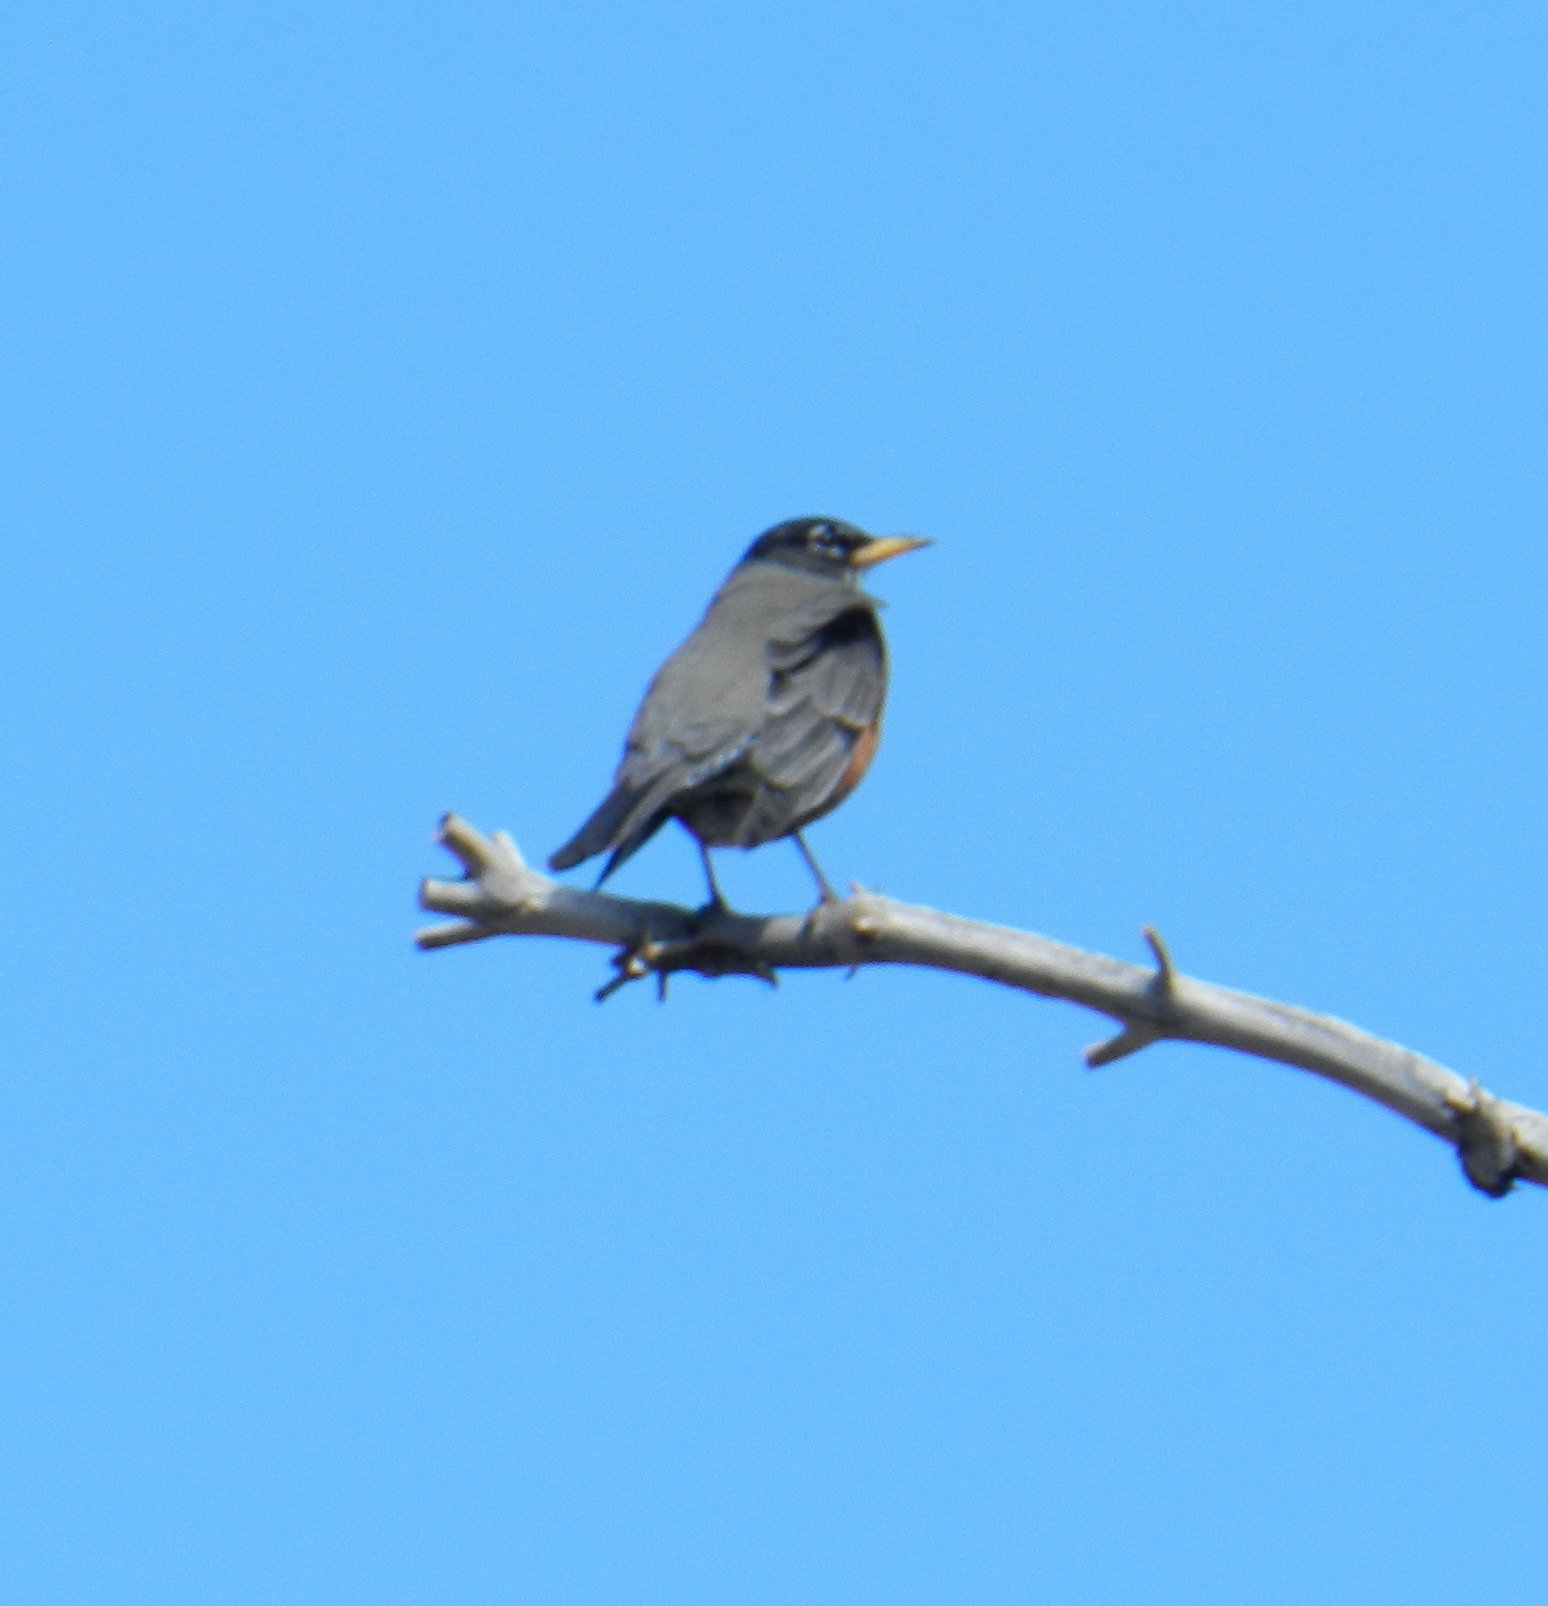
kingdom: Animalia
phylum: Chordata
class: Aves
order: Passeriformes
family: Turdidae
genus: Turdus
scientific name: Turdus migratorius
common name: American robin
